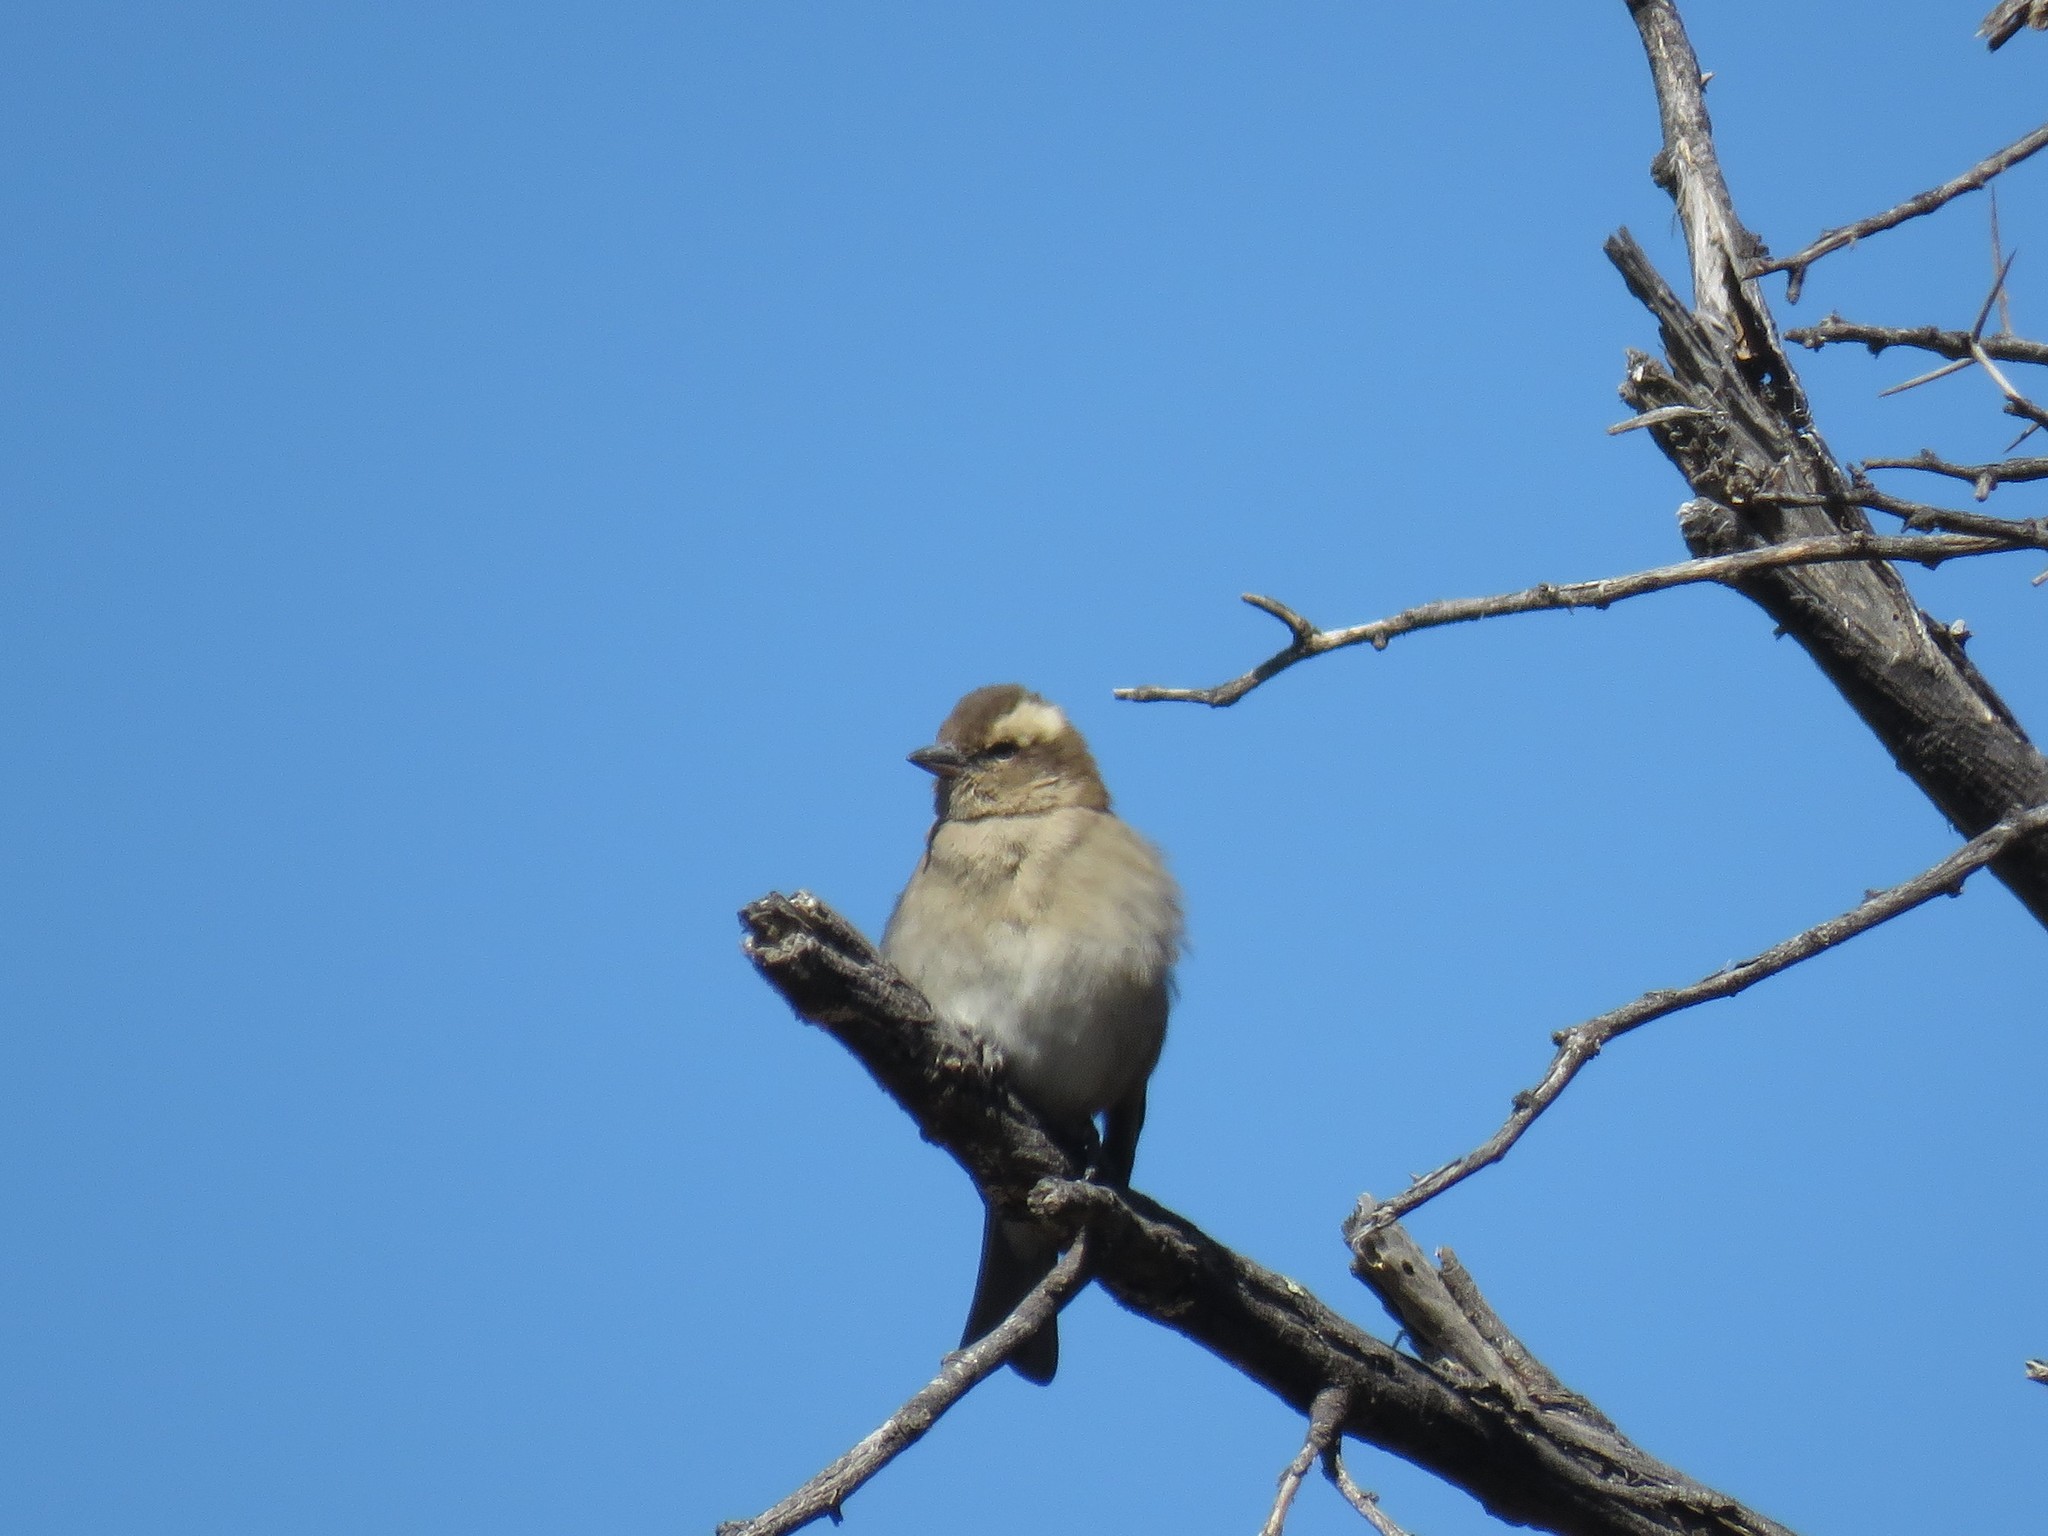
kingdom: Animalia
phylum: Chordata
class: Aves
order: Passeriformes
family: Passeridae
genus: Gymnoris
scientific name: Gymnoris superciliaris
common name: Yellow-throated petronia
